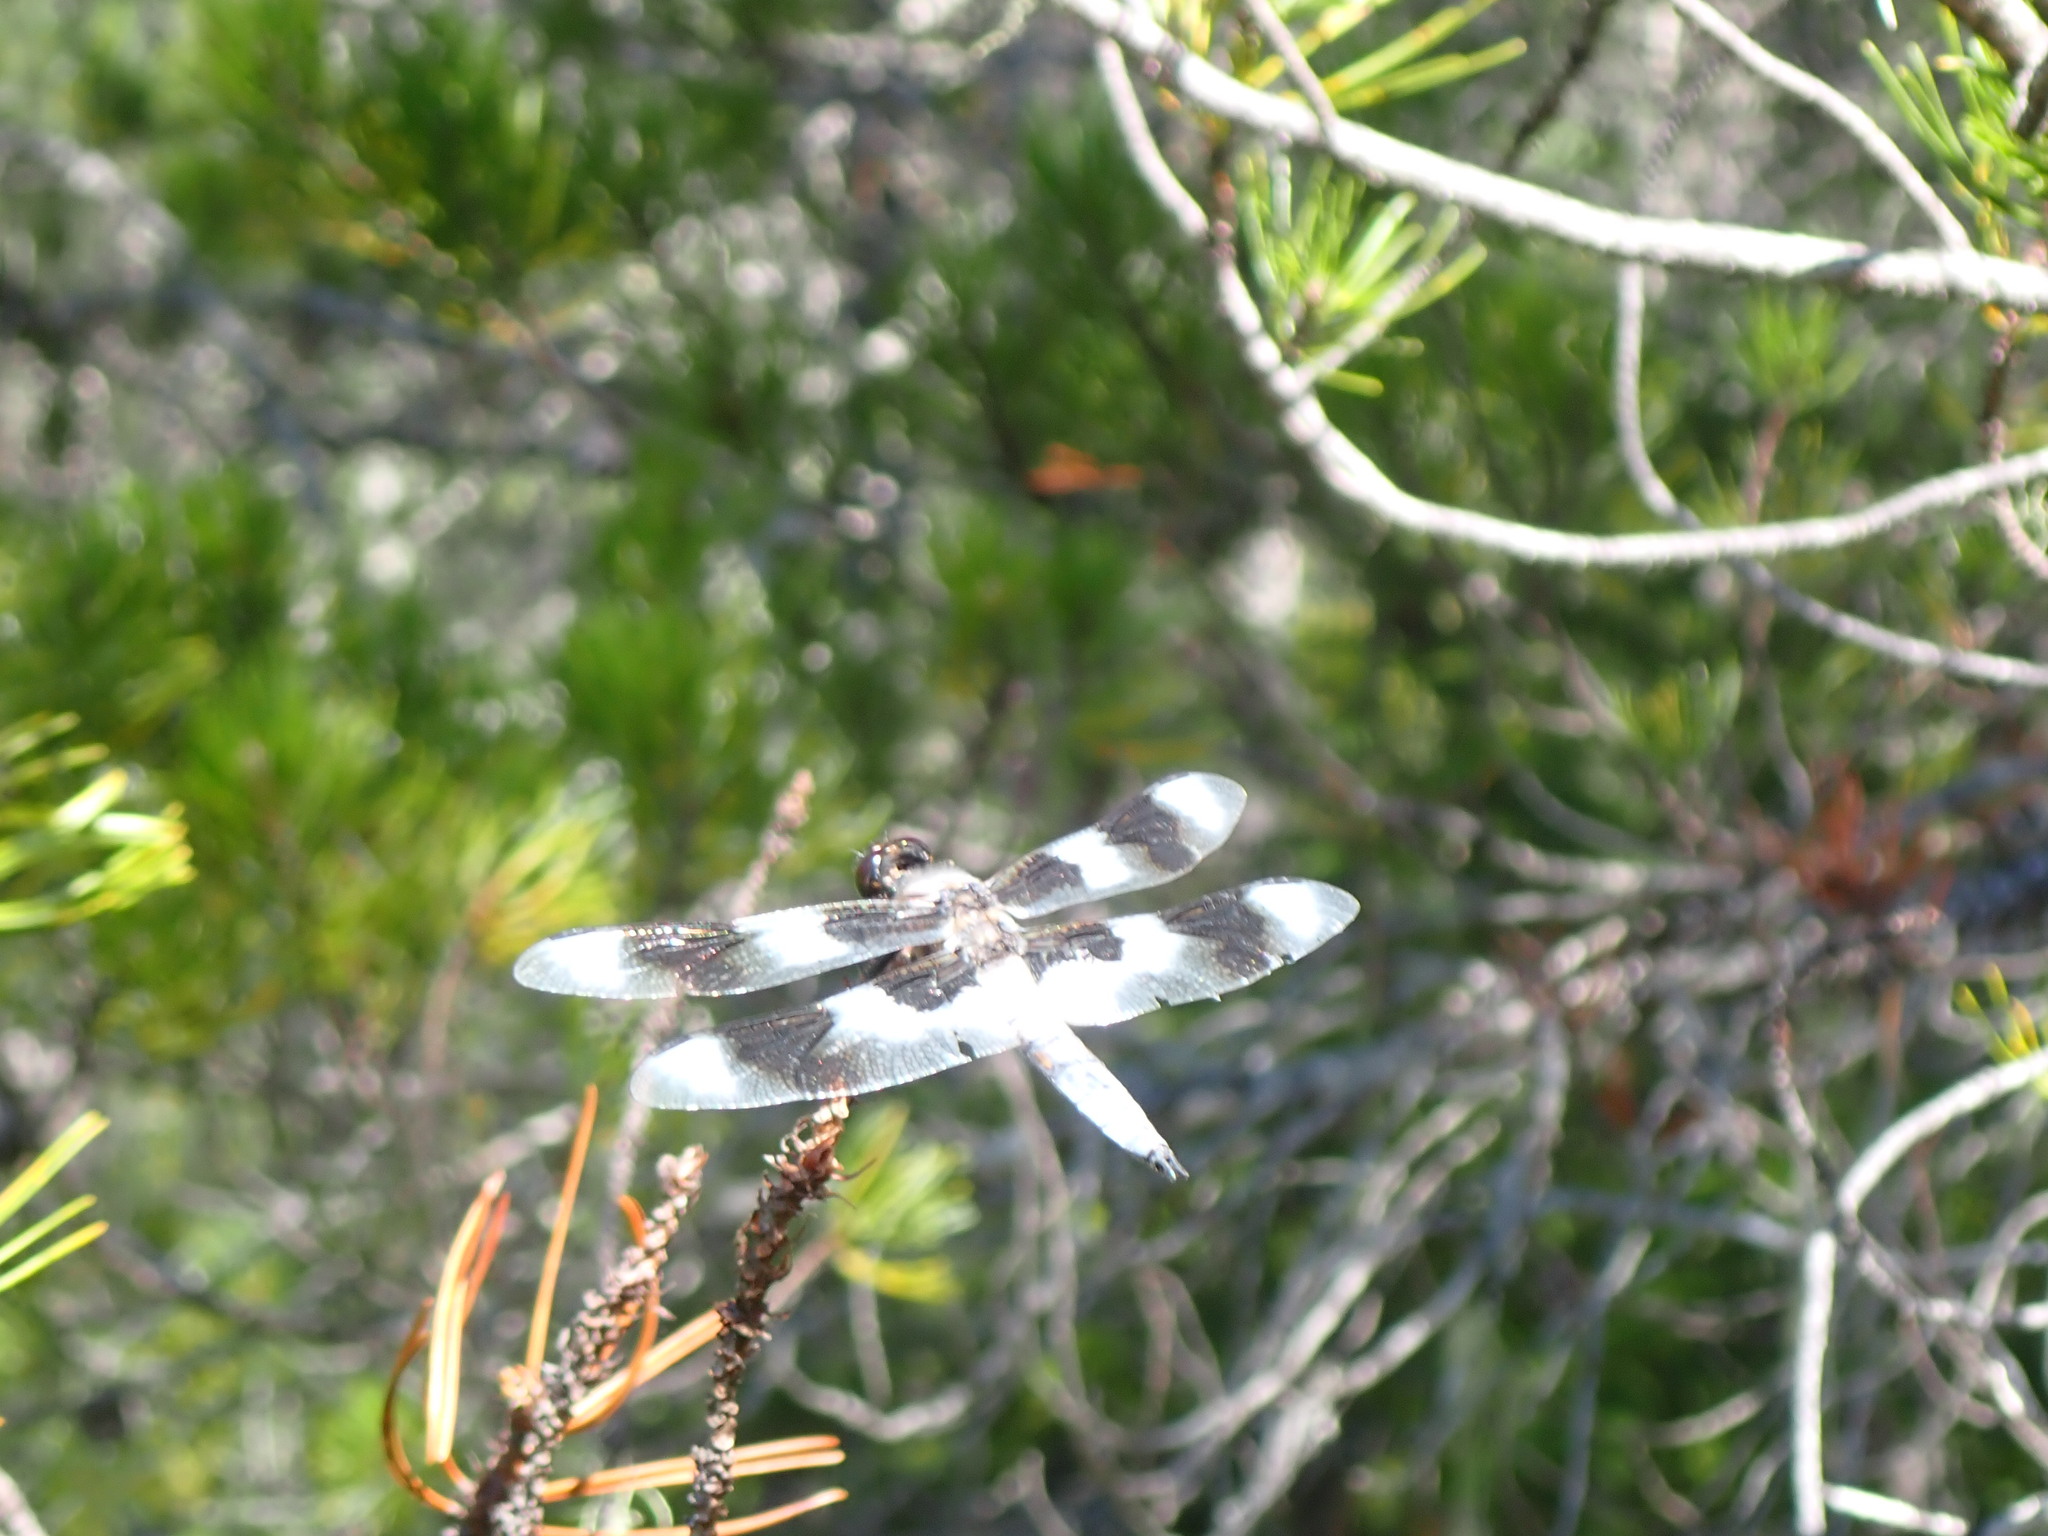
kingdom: Animalia
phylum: Arthropoda
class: Insecta
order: Odonata
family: Libellulidae
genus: Libellula
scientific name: Libellula forensis
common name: Eight-spotted skimmer
